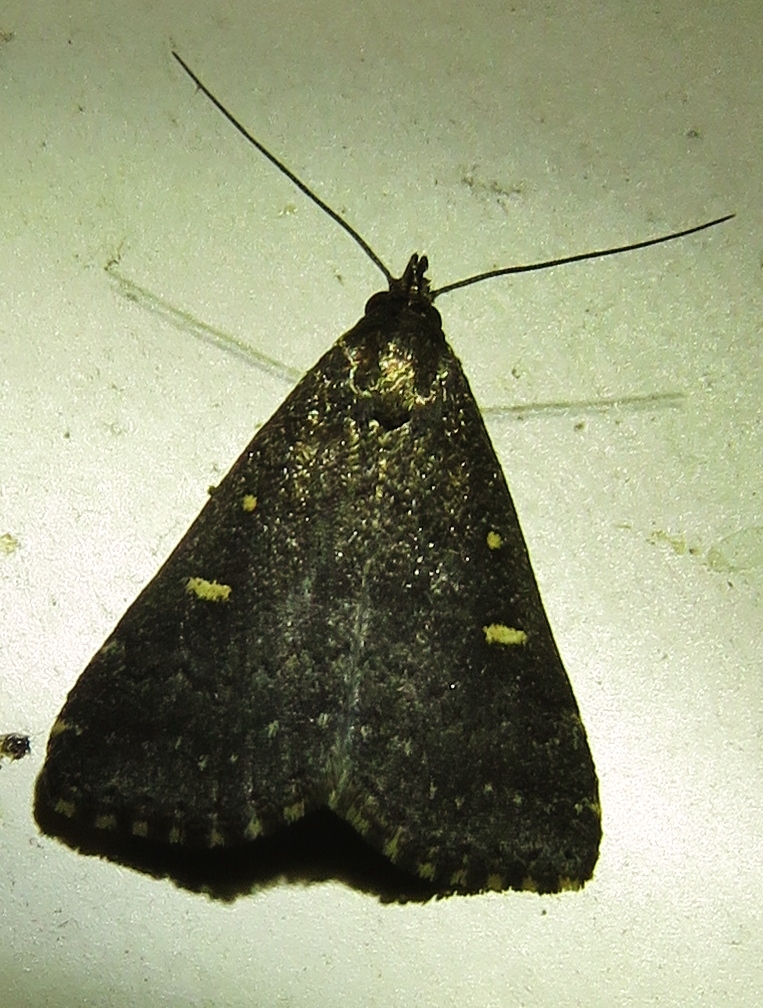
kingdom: Animalia
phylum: Arthropoda
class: Insecta
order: Lepidoptera
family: Erebidae
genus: Tetanolita
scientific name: Tetanolita mynesalis
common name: Smoky tetanolita moth
